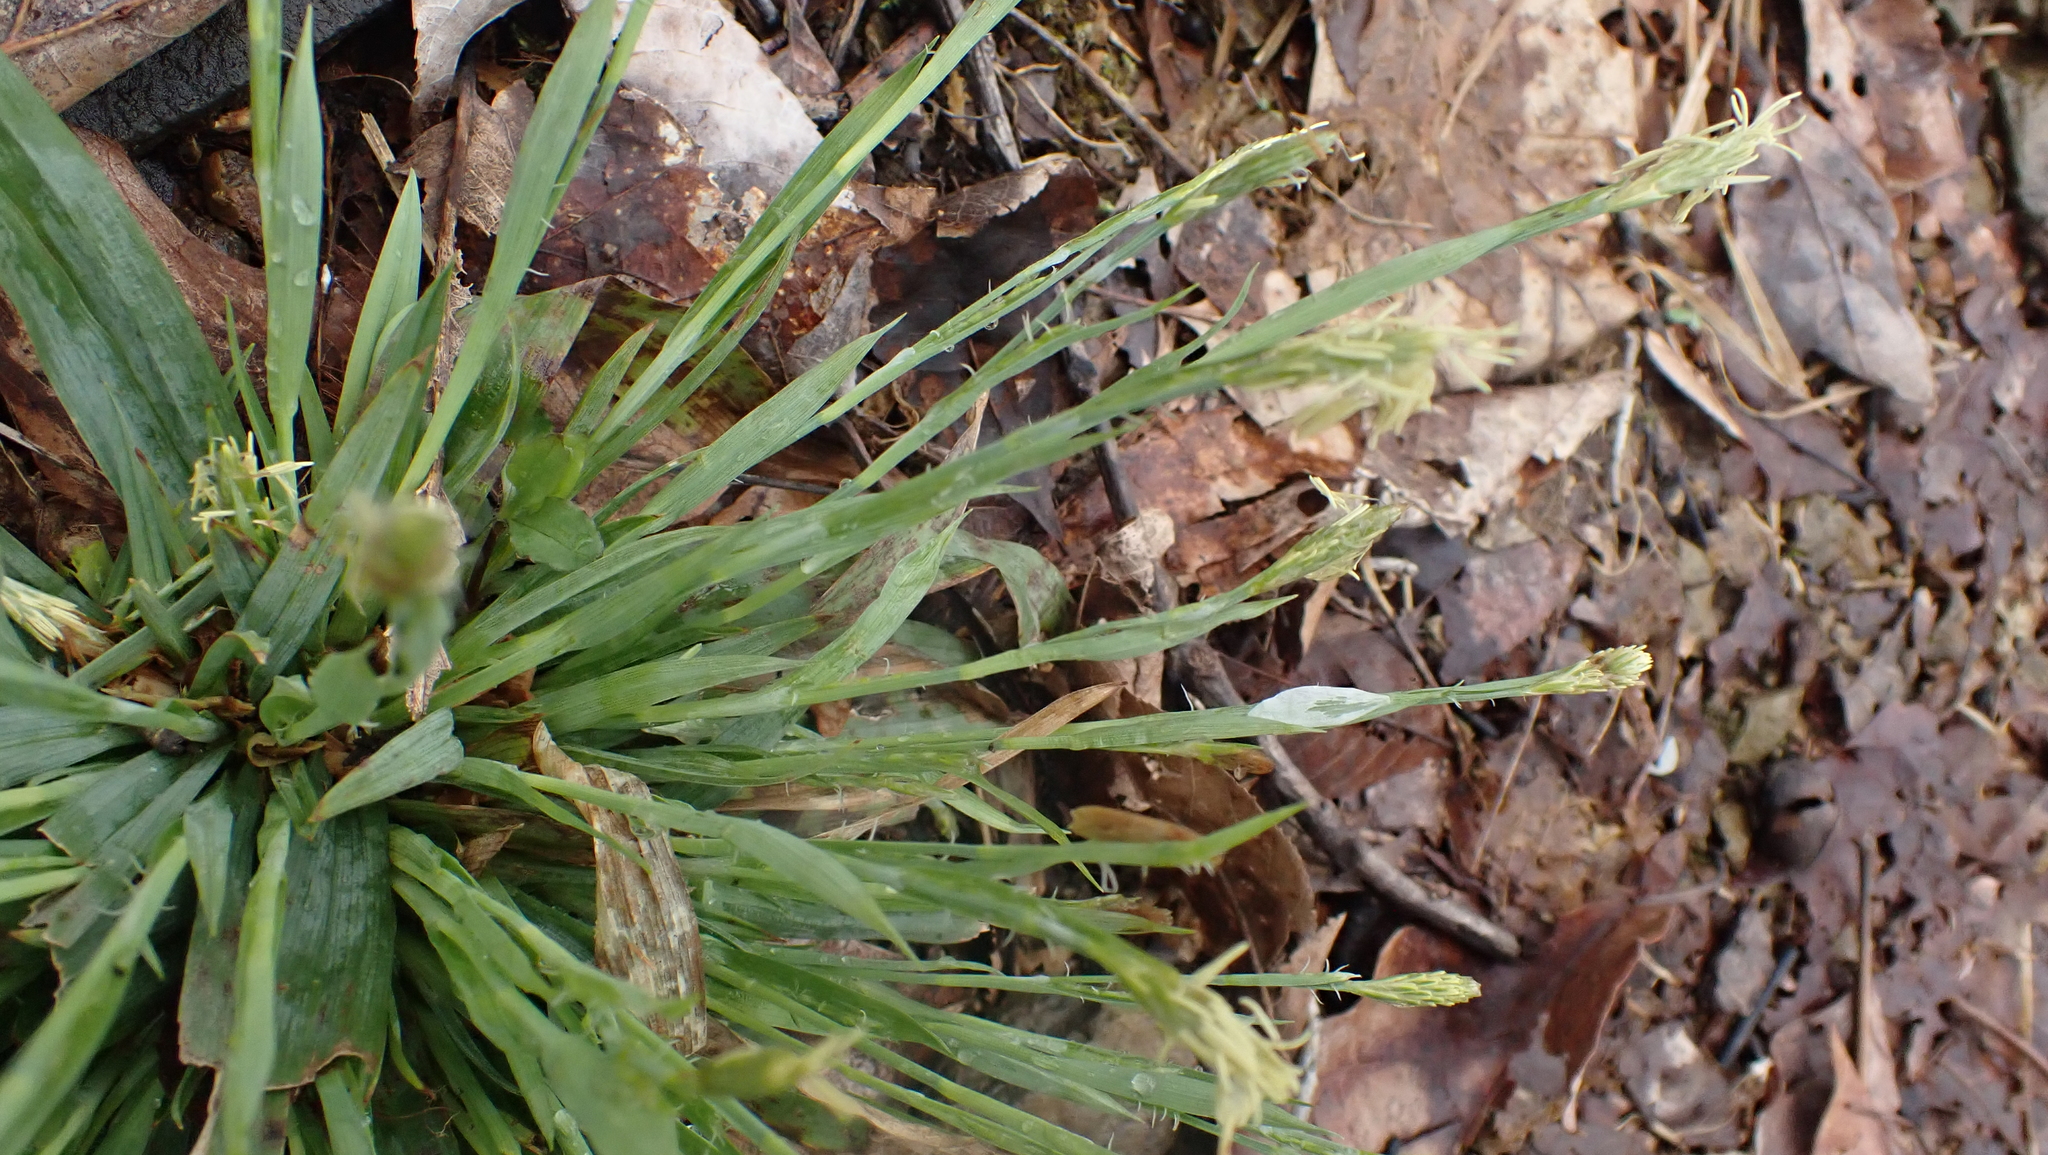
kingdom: Plantae
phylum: Tracheophyta
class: Liliopsida
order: Poales
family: Cyperaceae
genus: Carex
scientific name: Carex platyphylla
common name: Broad-leaved sedge
